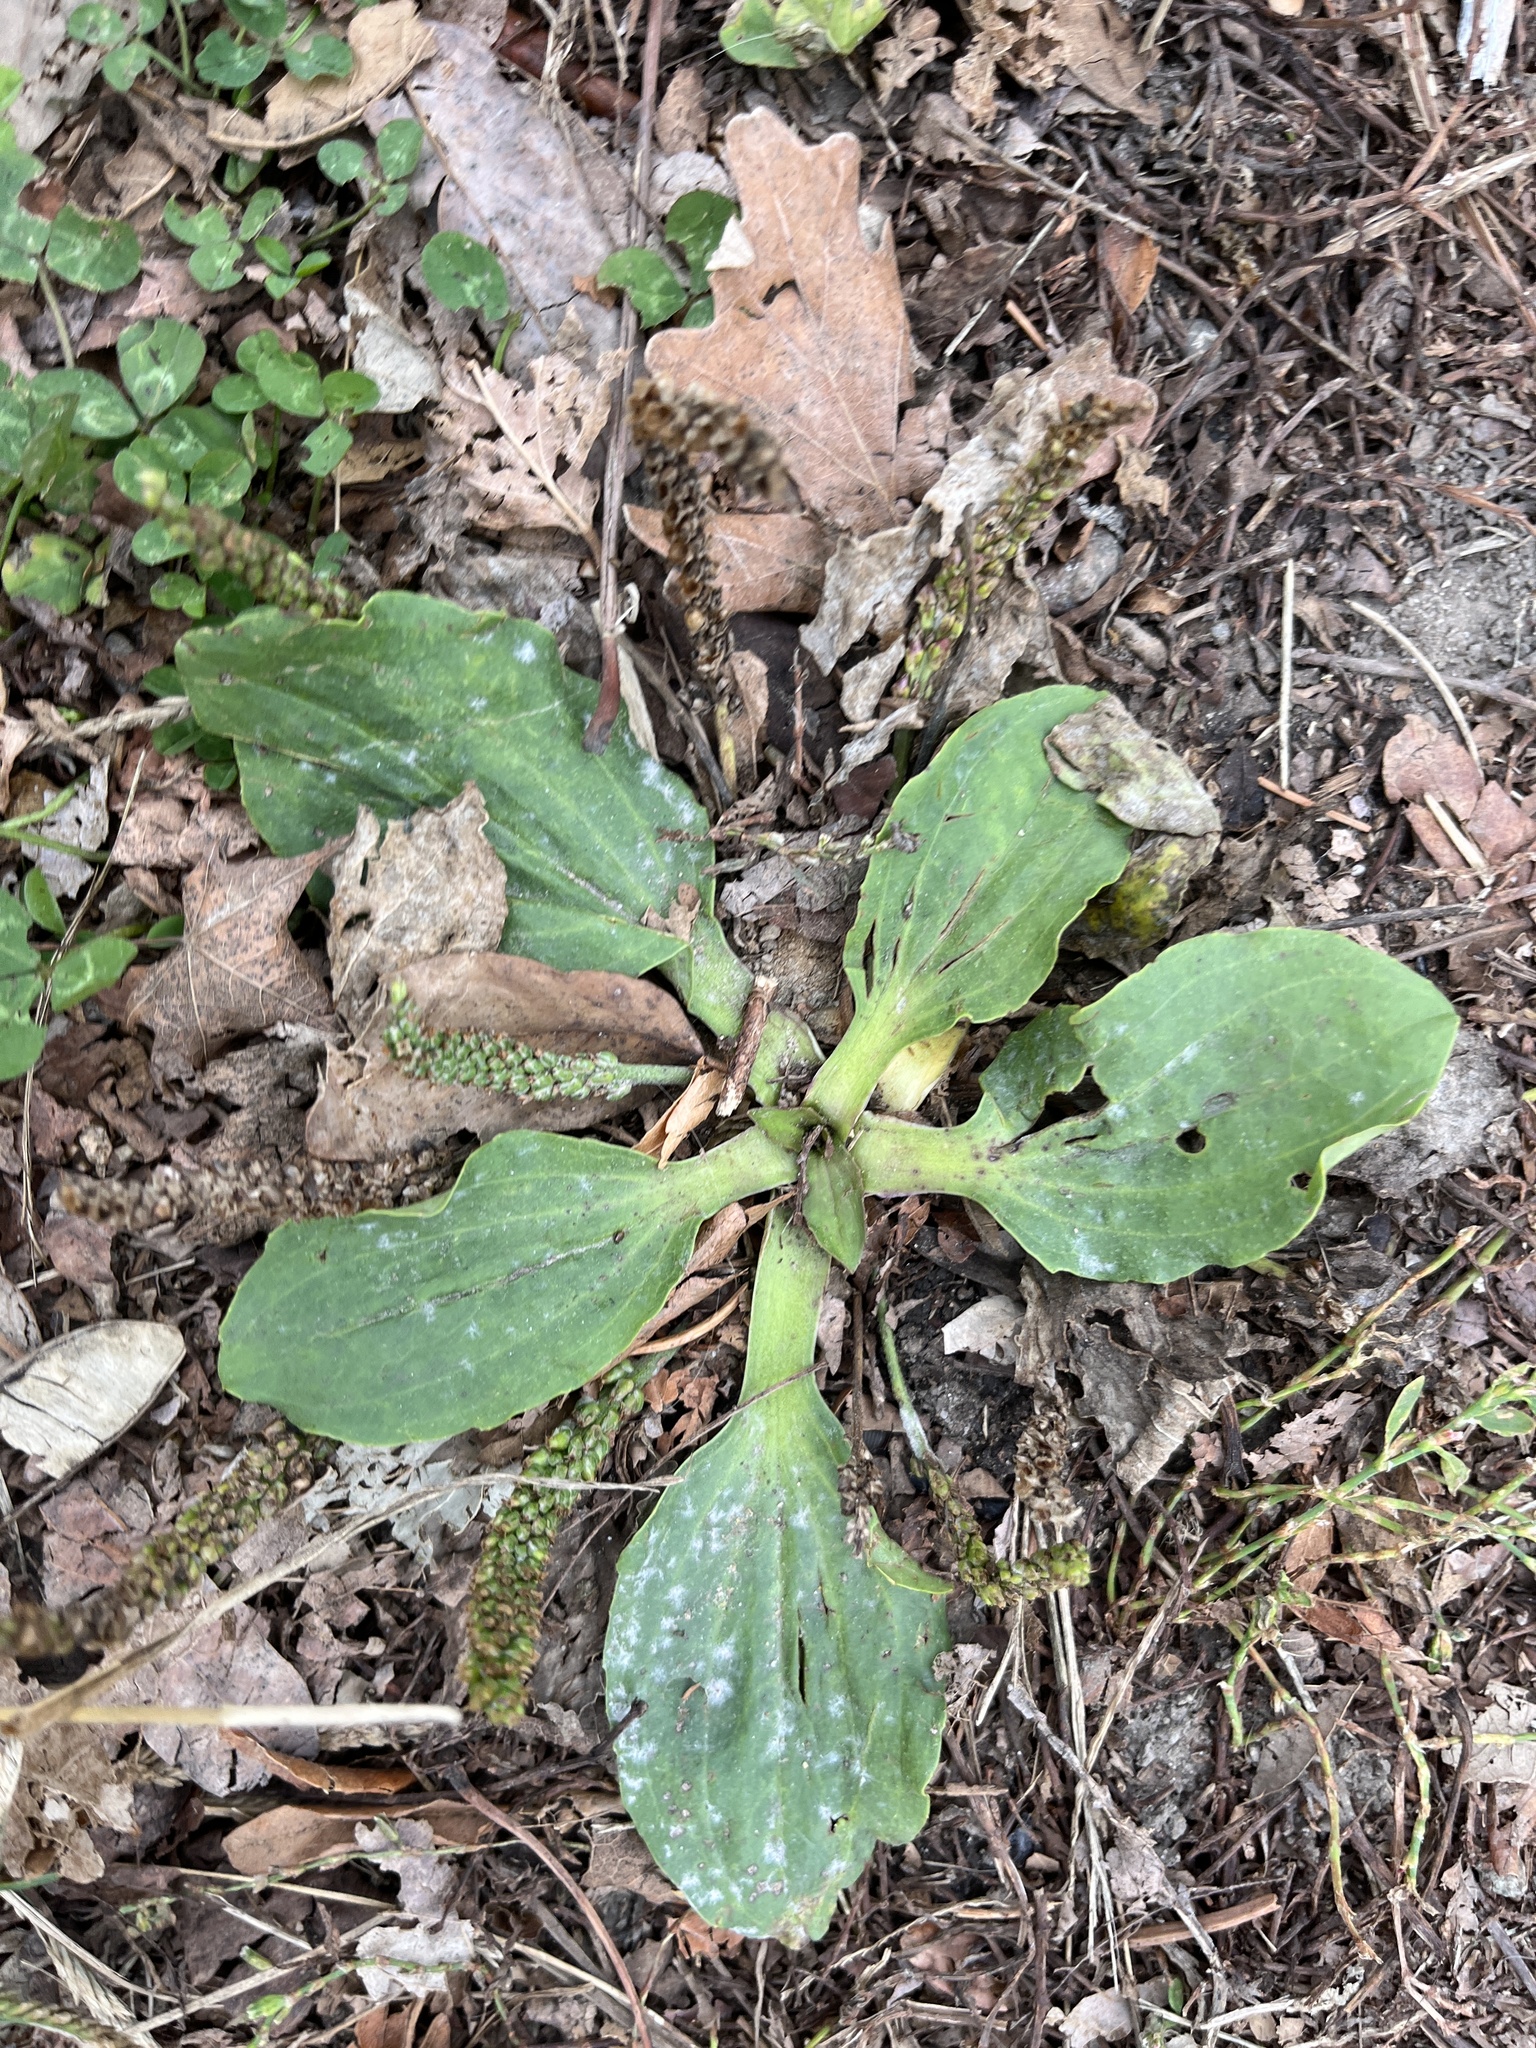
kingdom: Plantae
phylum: Tracheophyta
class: Magnoliopsida
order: Lamiales
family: Plantaginaceae
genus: Plantago
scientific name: Plantago major
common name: Common plantain
